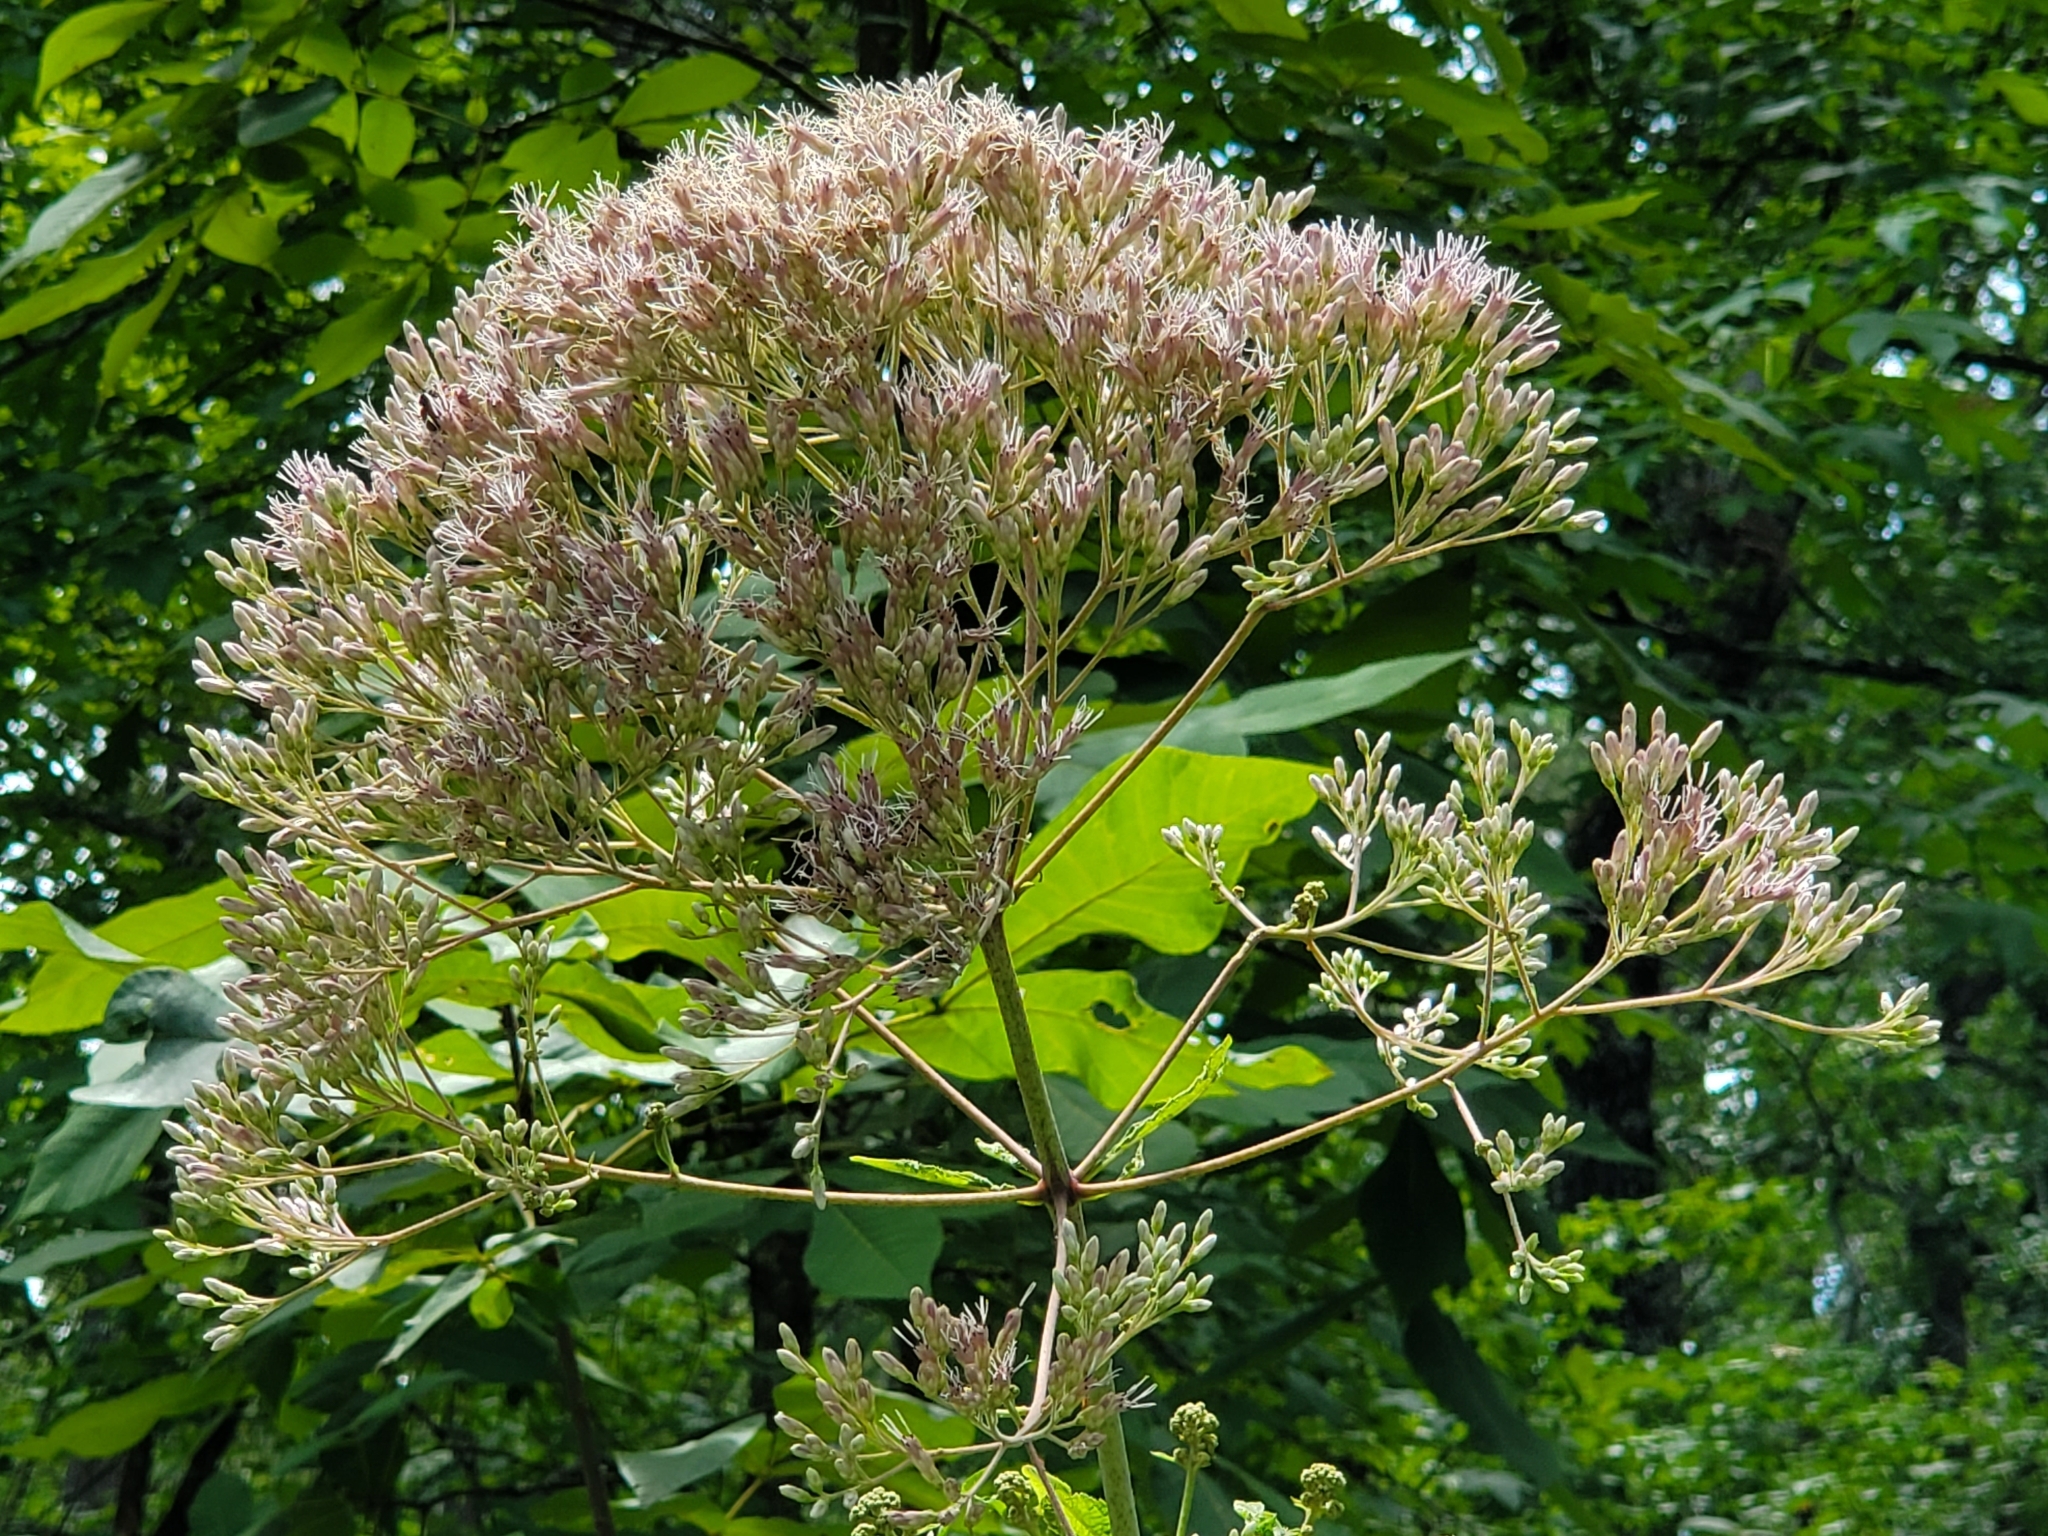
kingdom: Plantae
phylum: Tracheophyta
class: Magnoliopsida
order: Asterales
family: Asteraceae
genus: Eutrochium
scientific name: Eutrochium fistulosum
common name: Trumpetweed
